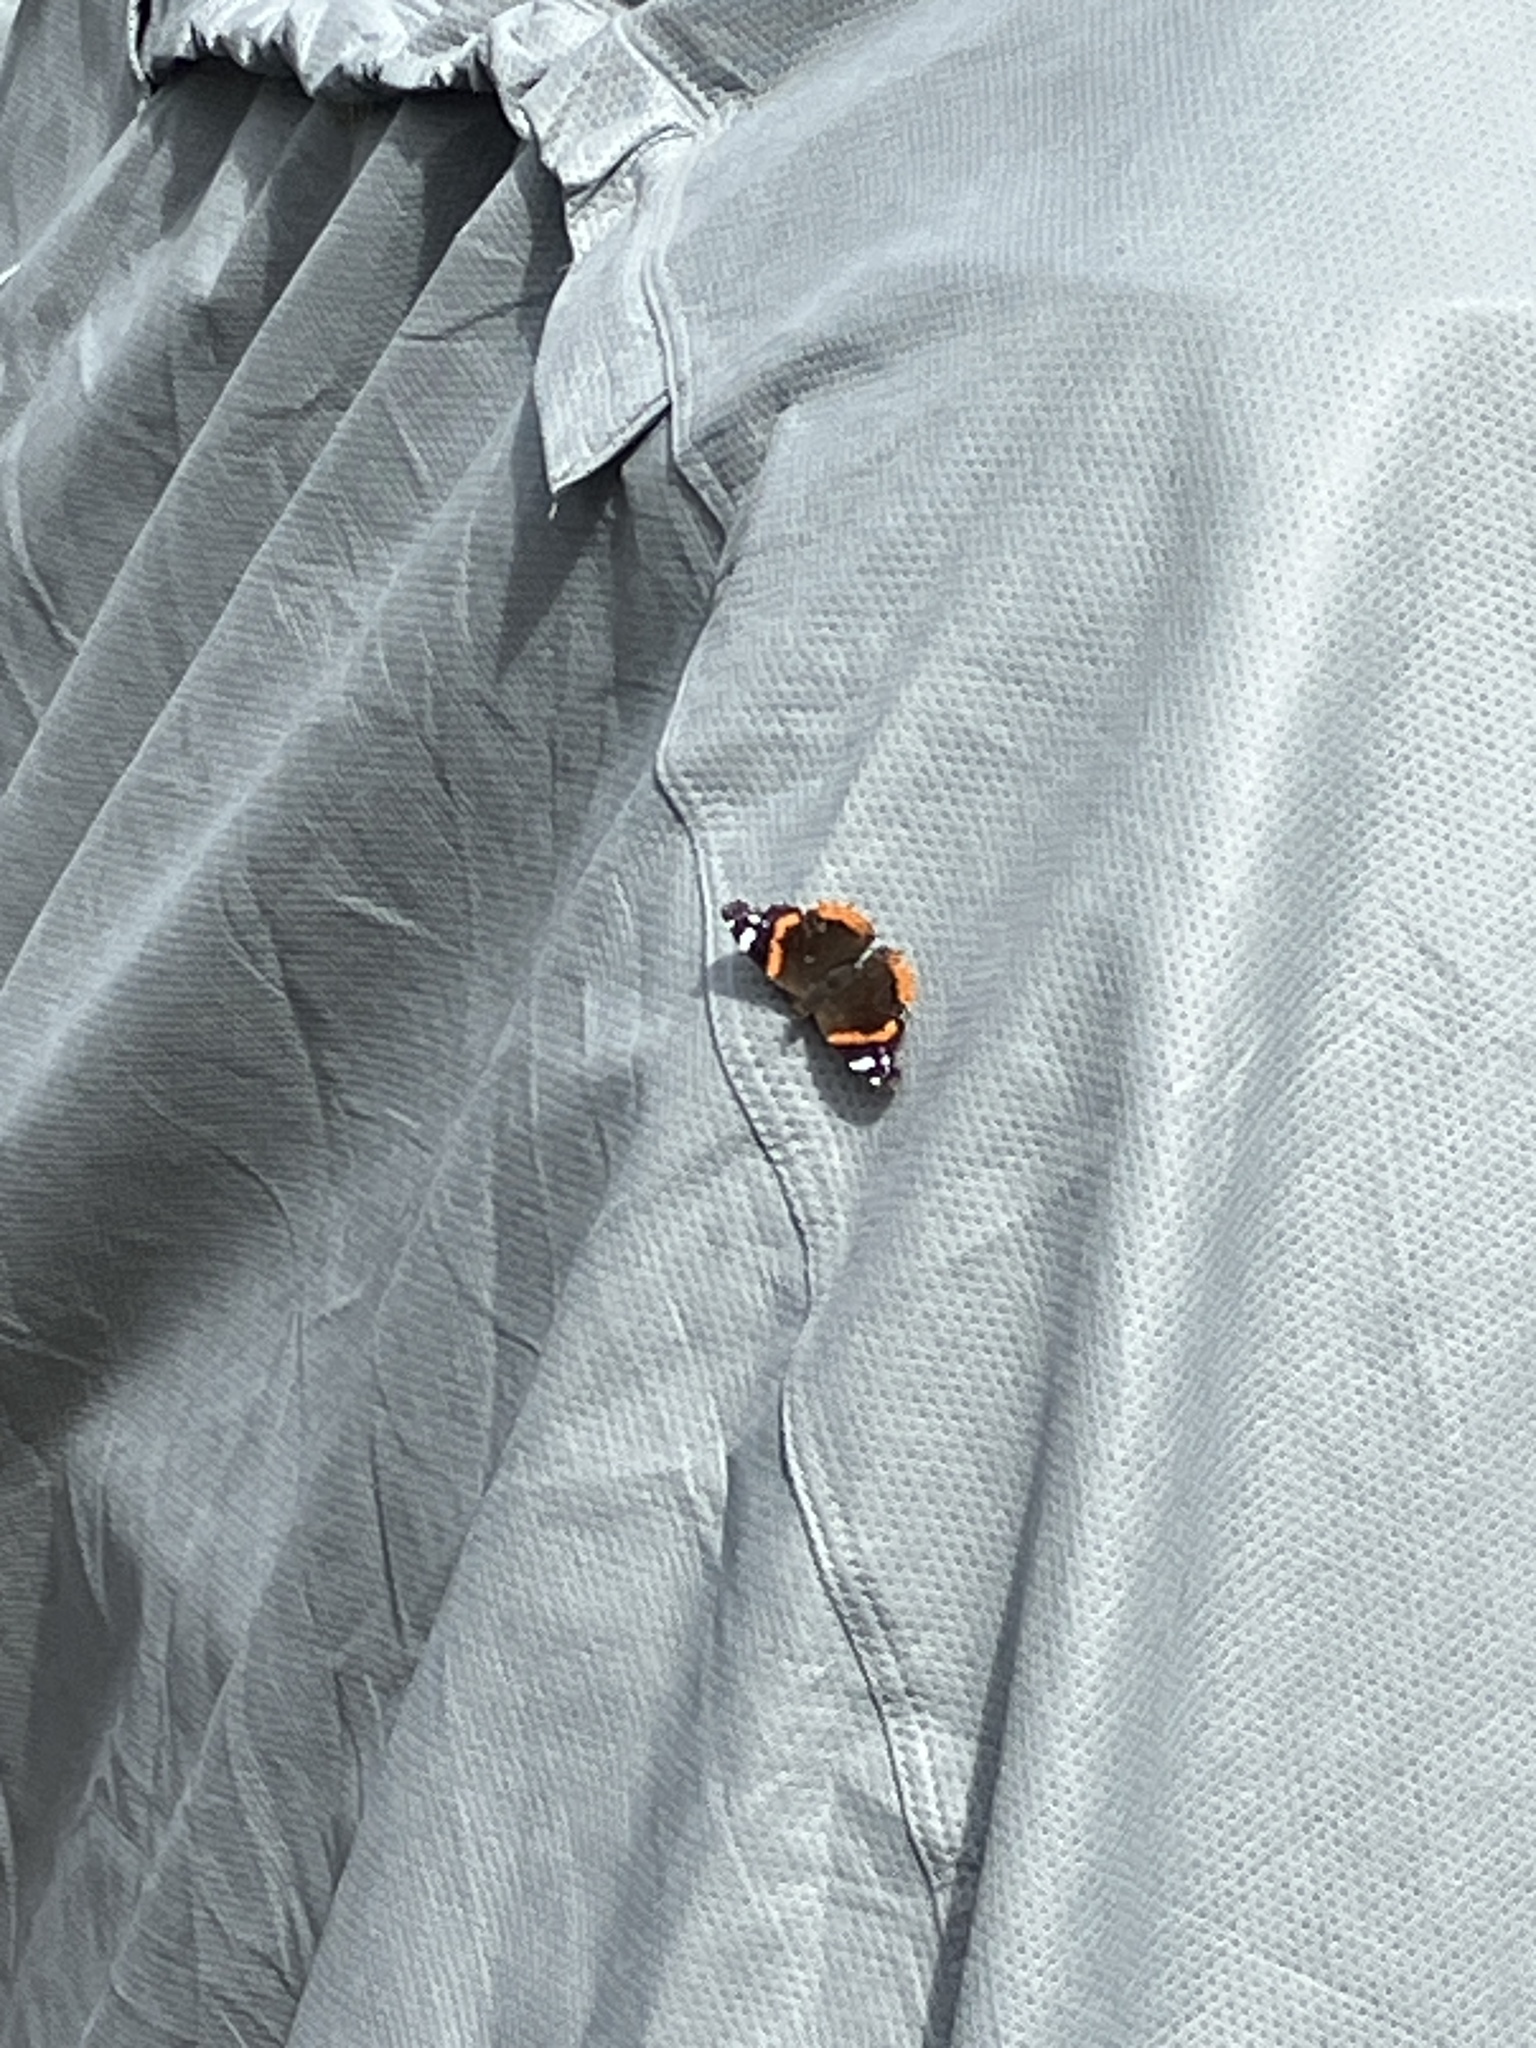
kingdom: Animalia
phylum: Arthropoda
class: Insecta
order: Lepidoptera
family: Nymphalidae
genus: Vanessa
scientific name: Vanessa atalanta
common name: Red admiral
